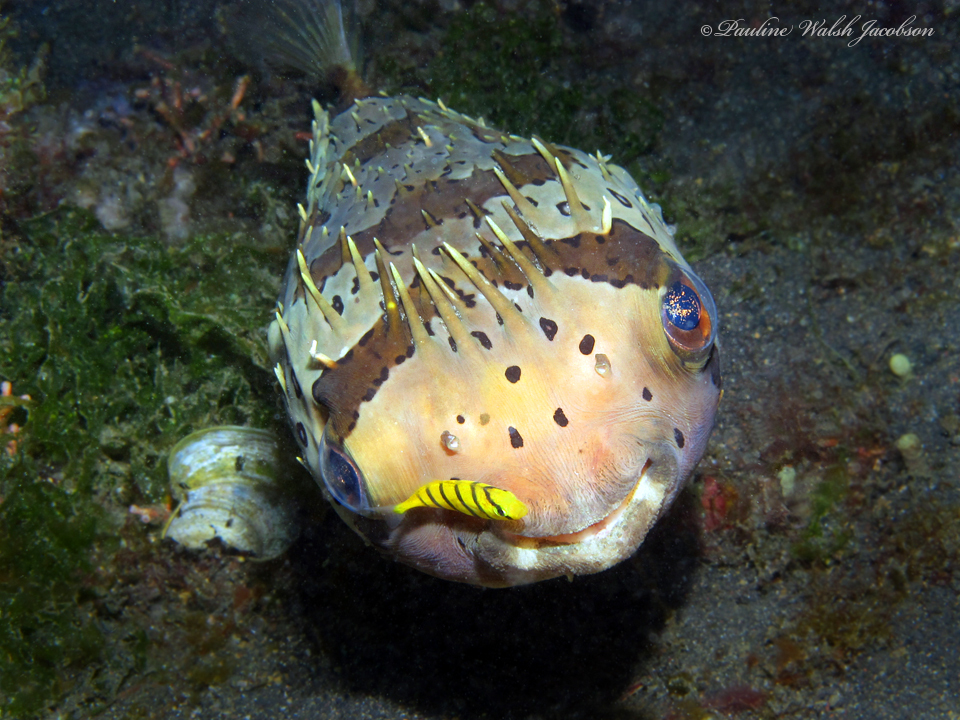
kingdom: Animalia
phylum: Chordata
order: Perciformes
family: Carangidae
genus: Gnathanodon
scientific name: Gnathanodon speciosus
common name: Golden toothless trevally
